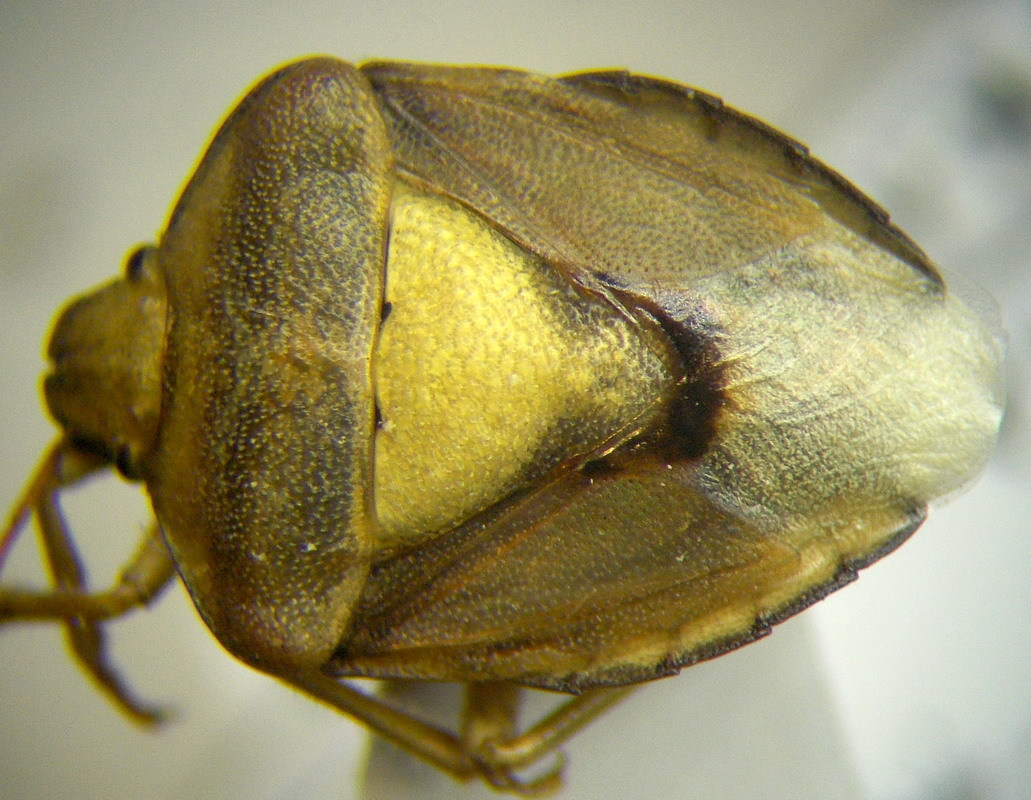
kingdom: Animalia
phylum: Arthropoda
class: Insecta
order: Hemiptera
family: Pentatomidae
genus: Antheminia
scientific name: Antheminia lunulata
